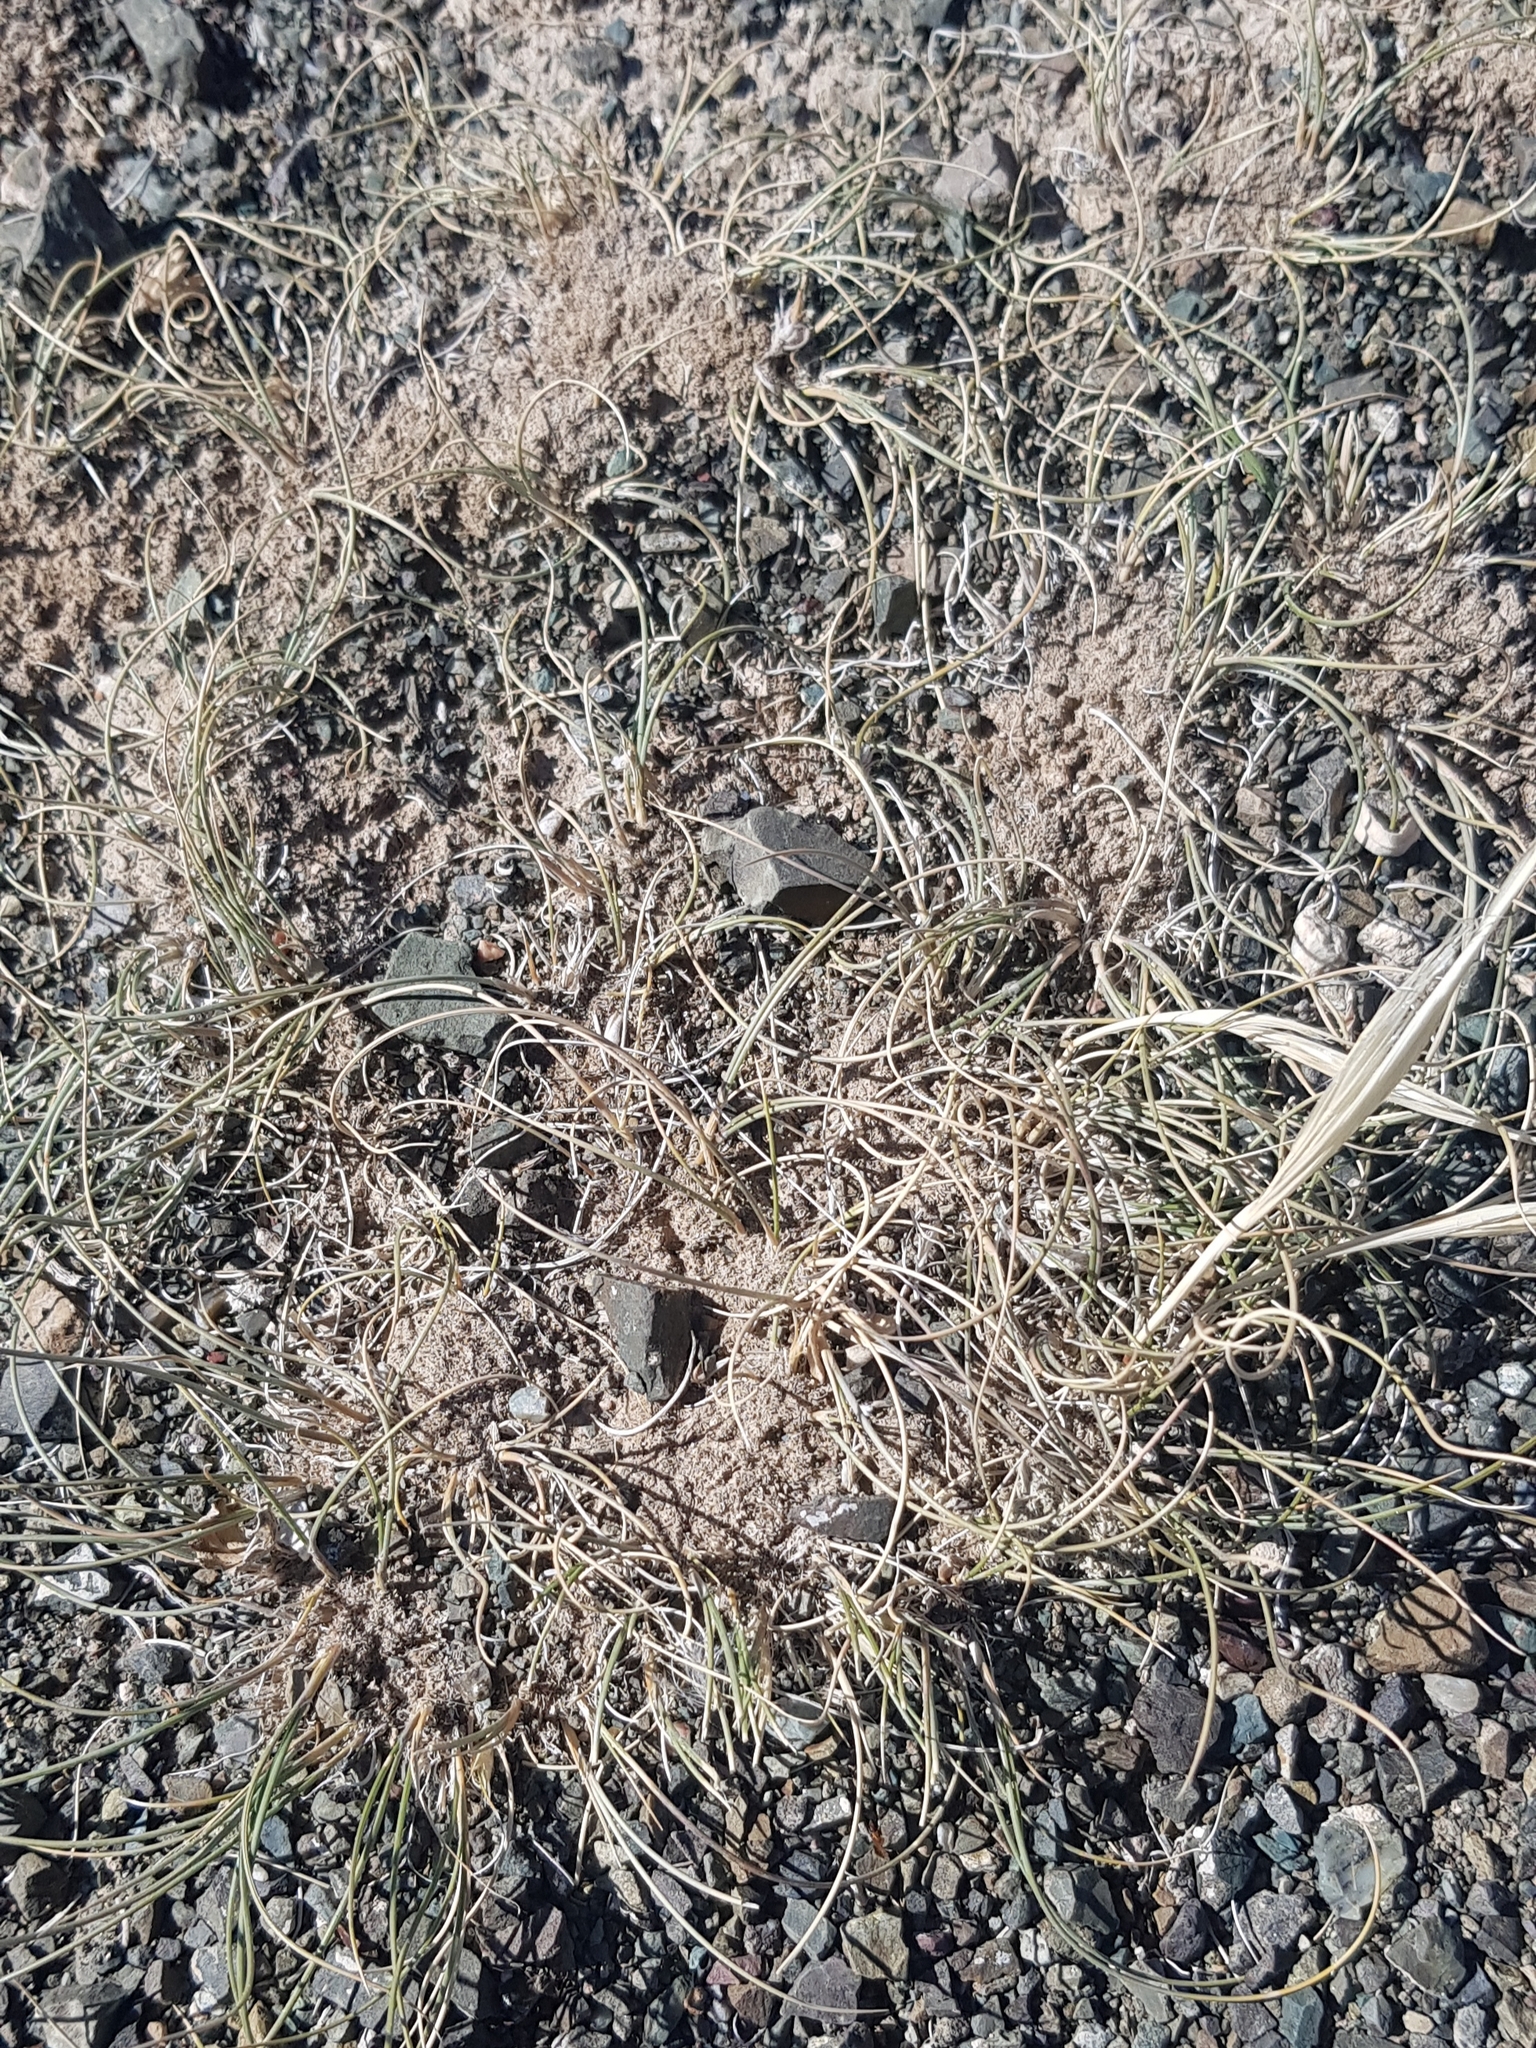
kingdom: Plantae
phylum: Tracheophyta
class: Liliopsida
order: Poales
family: Poaceae
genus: Stipa
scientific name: Stipa glareosa
